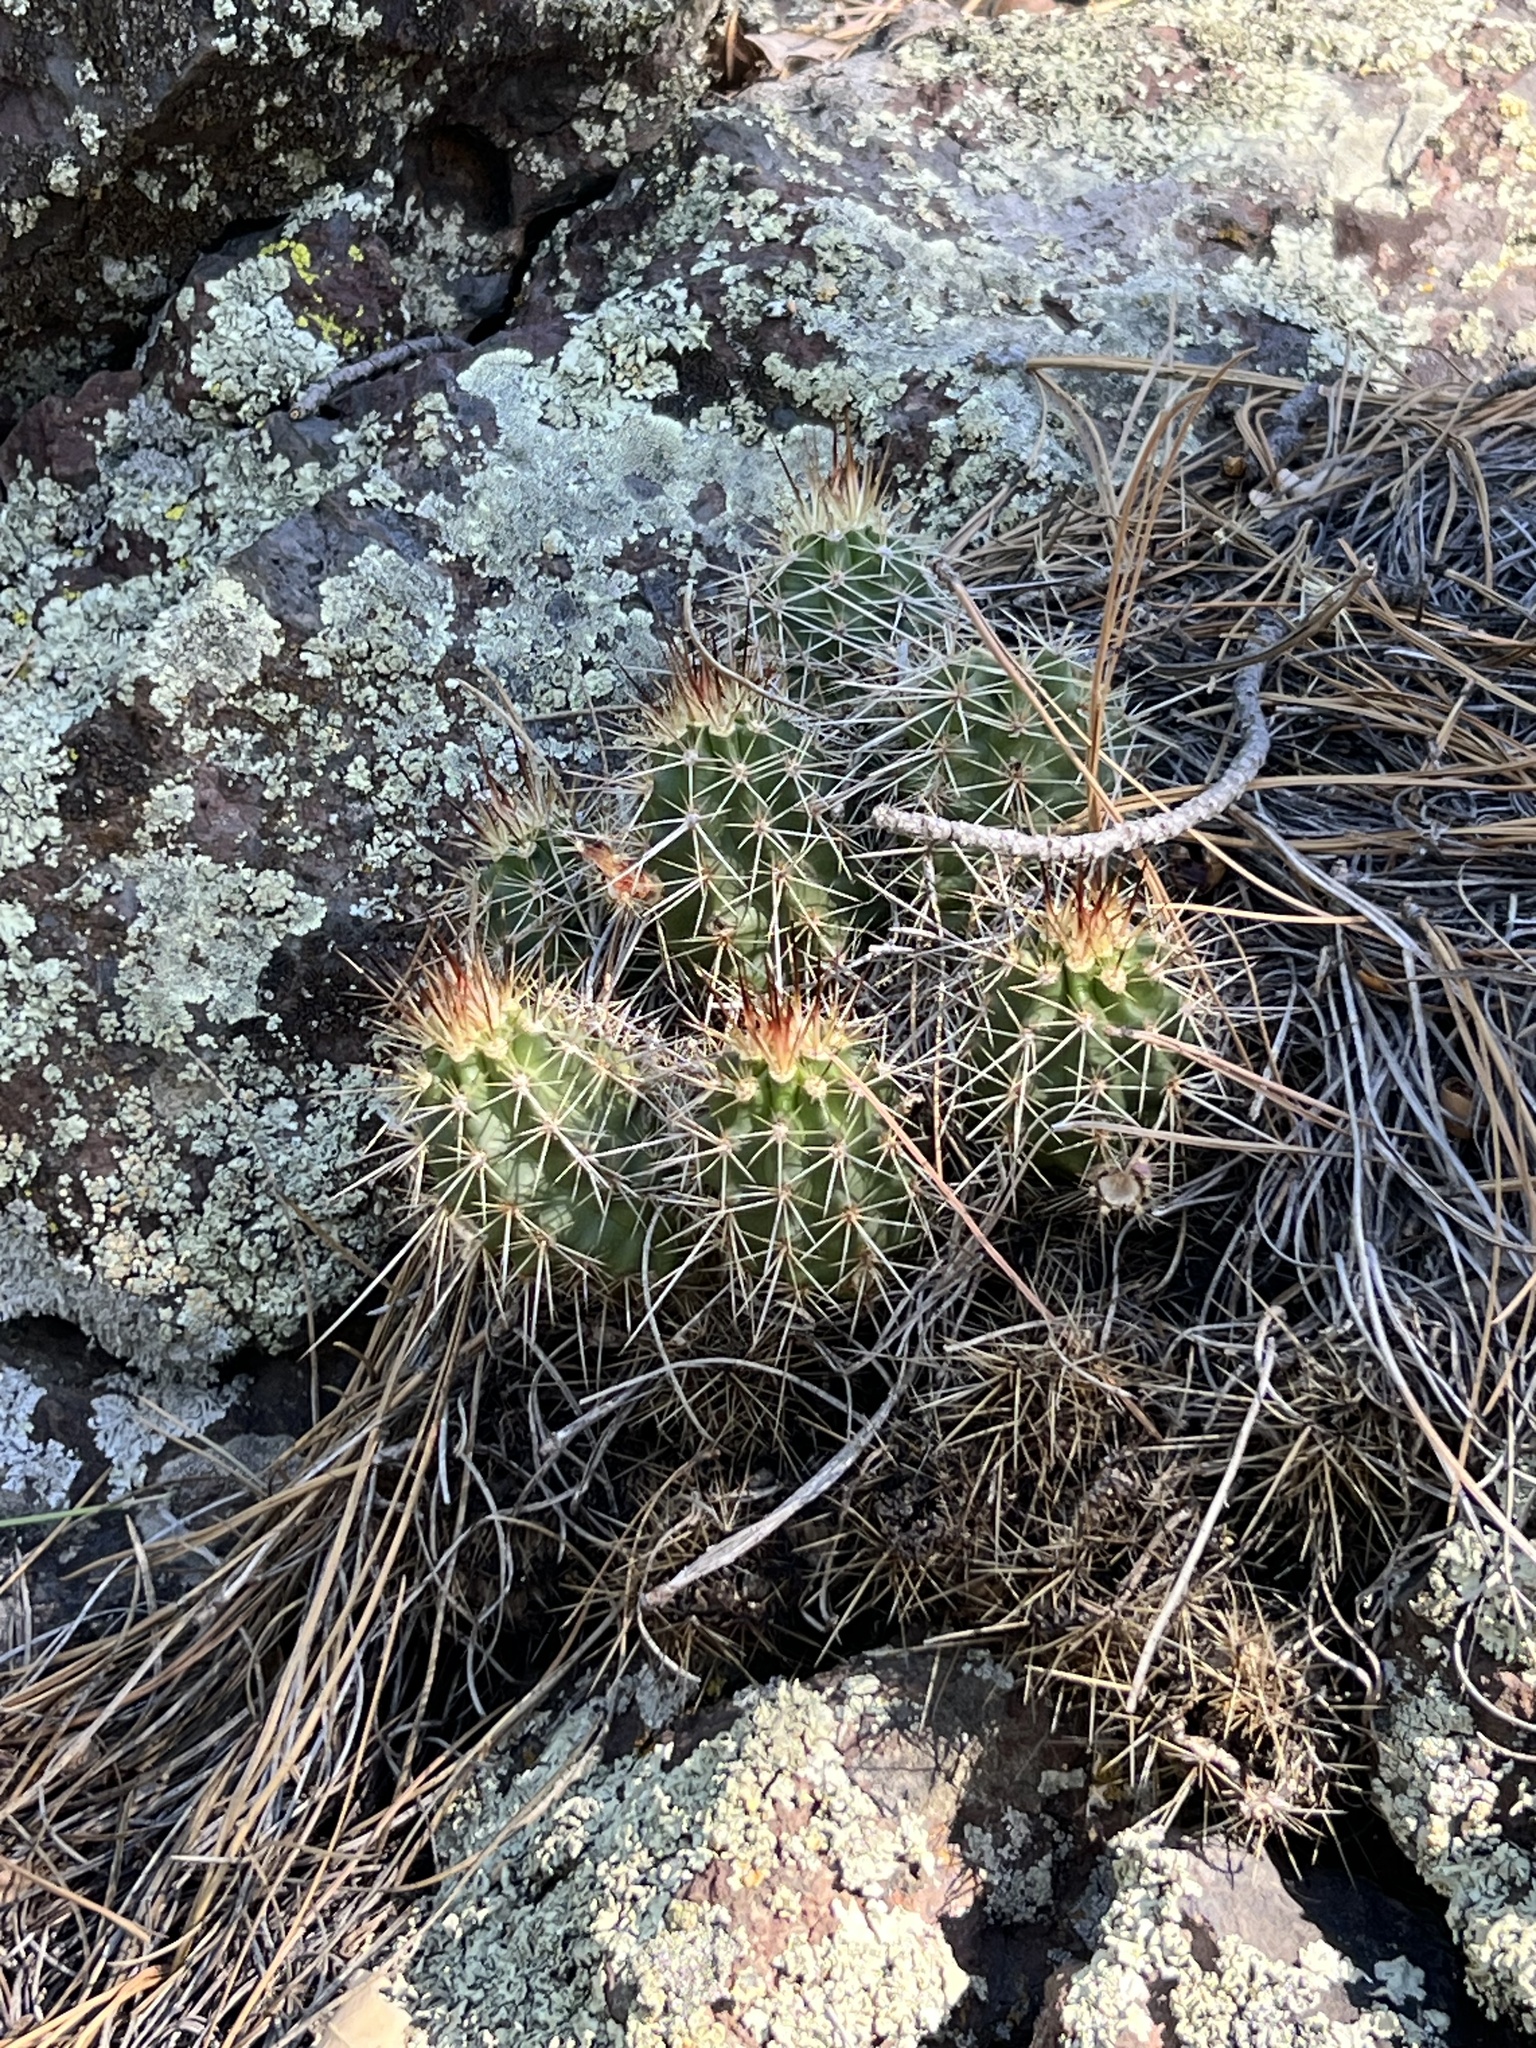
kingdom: Plantae
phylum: Tracheophyta
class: Magnoliopsida
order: Caryophyllales
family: Cactaceae
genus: Echinocereus
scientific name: Echinocereus bakeri
